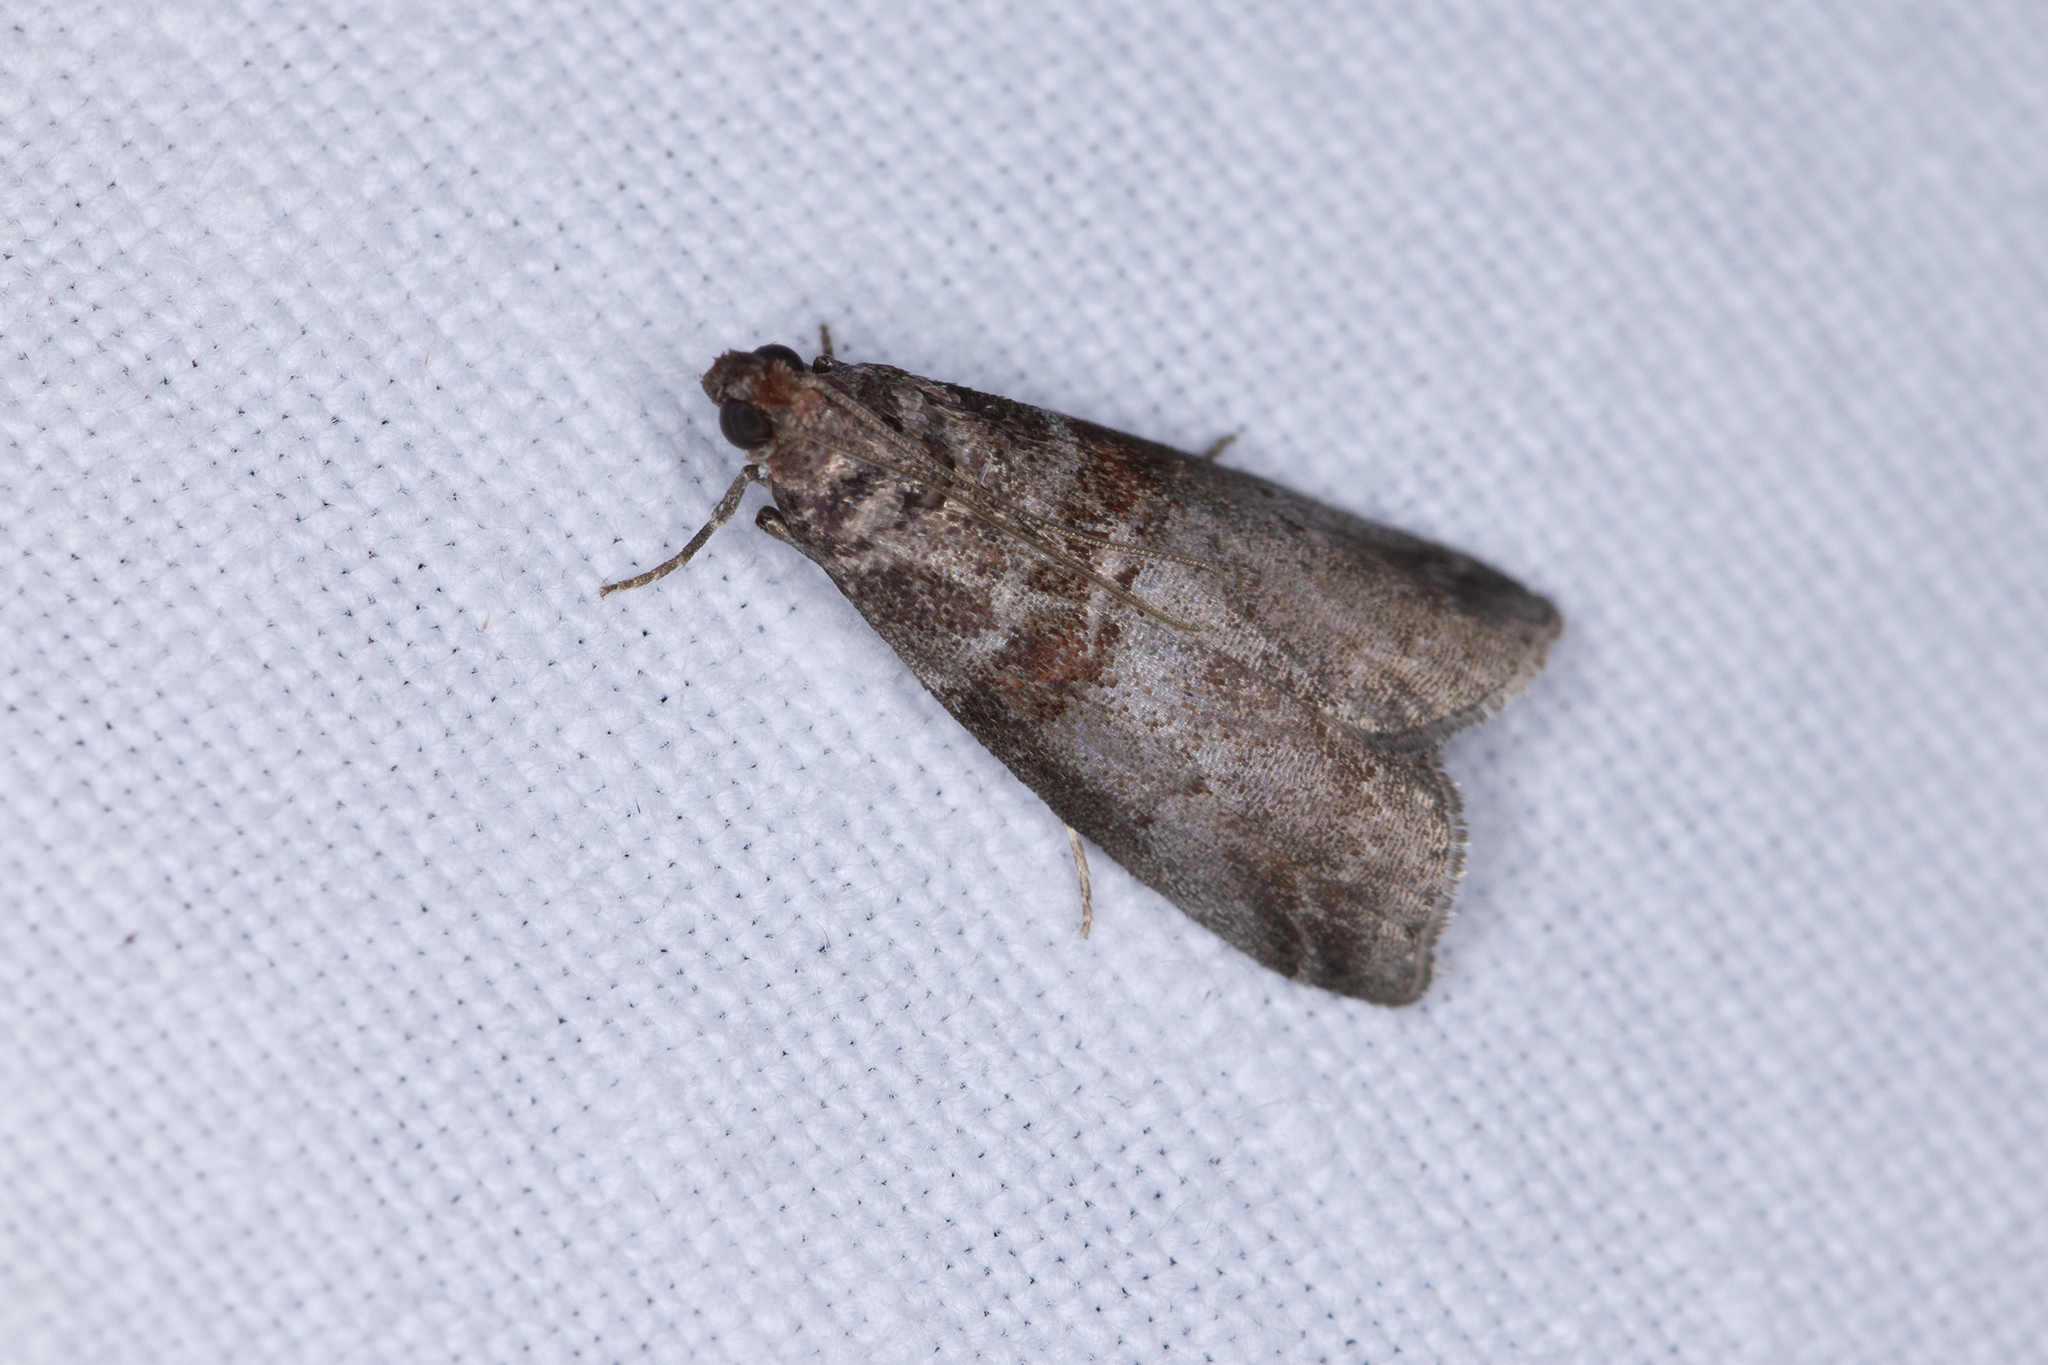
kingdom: Animalia
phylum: Arthropoda
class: Insecta
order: Lepidoptera
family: Pyralidae
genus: Acrobasis
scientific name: Acrobasis advenella
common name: Grey knot-horn
